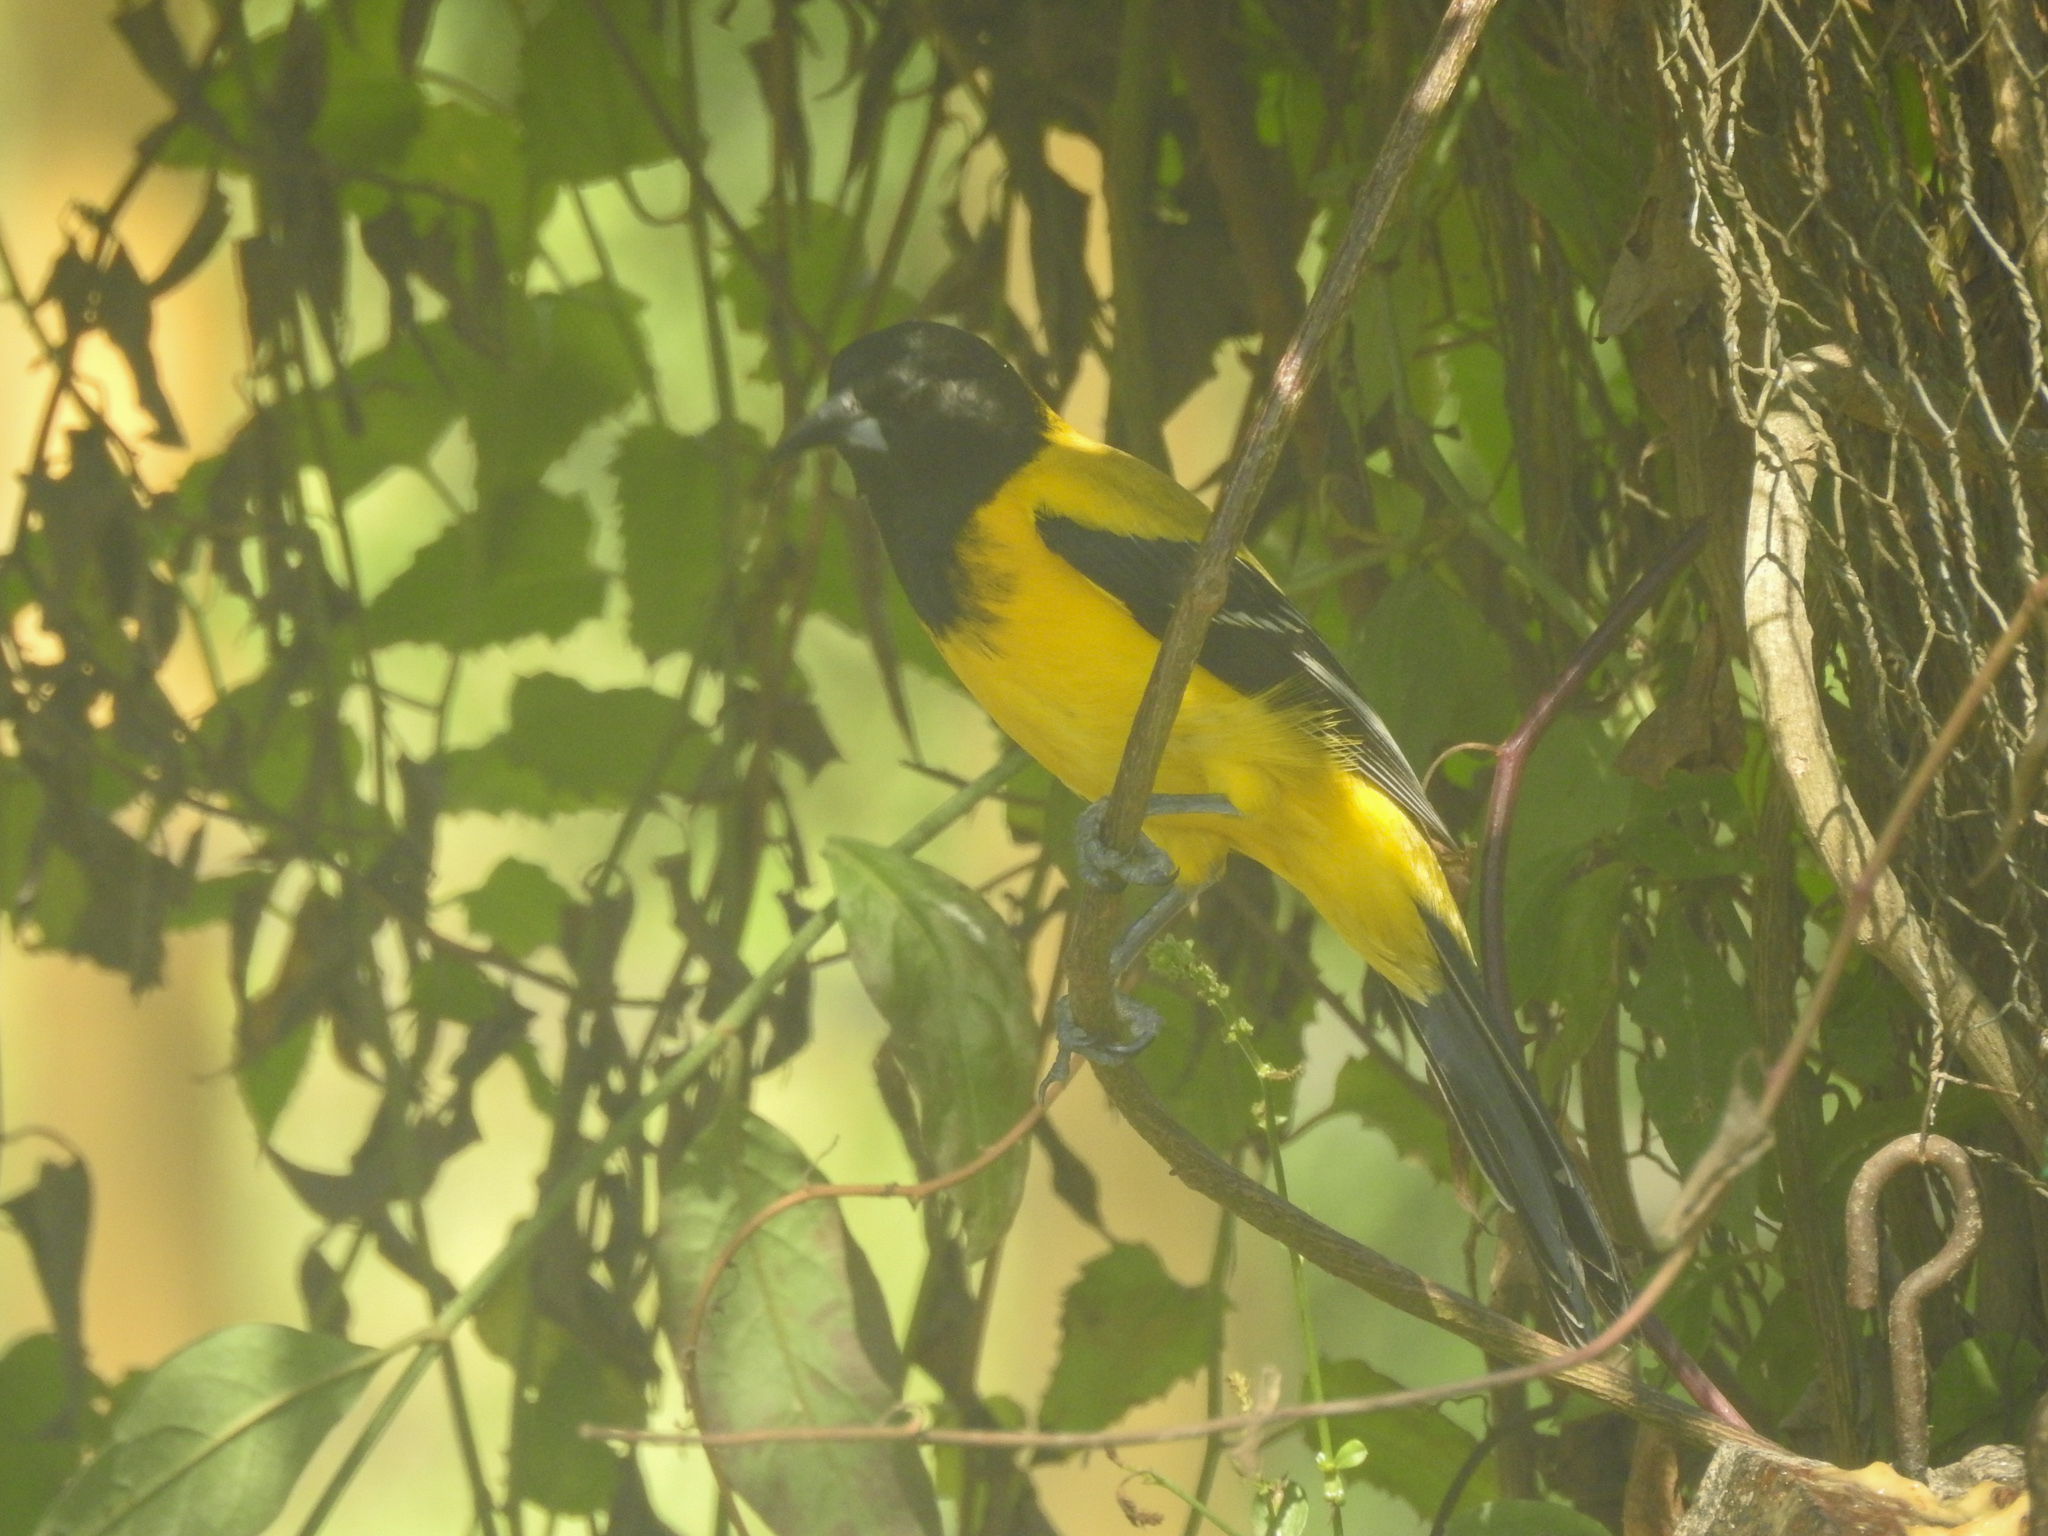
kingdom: Animalia
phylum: Chordata
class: Aves
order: Passeriformes
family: Icteridae
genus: Icterus
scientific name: Icterus graduacauda
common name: Audubon's oriole
